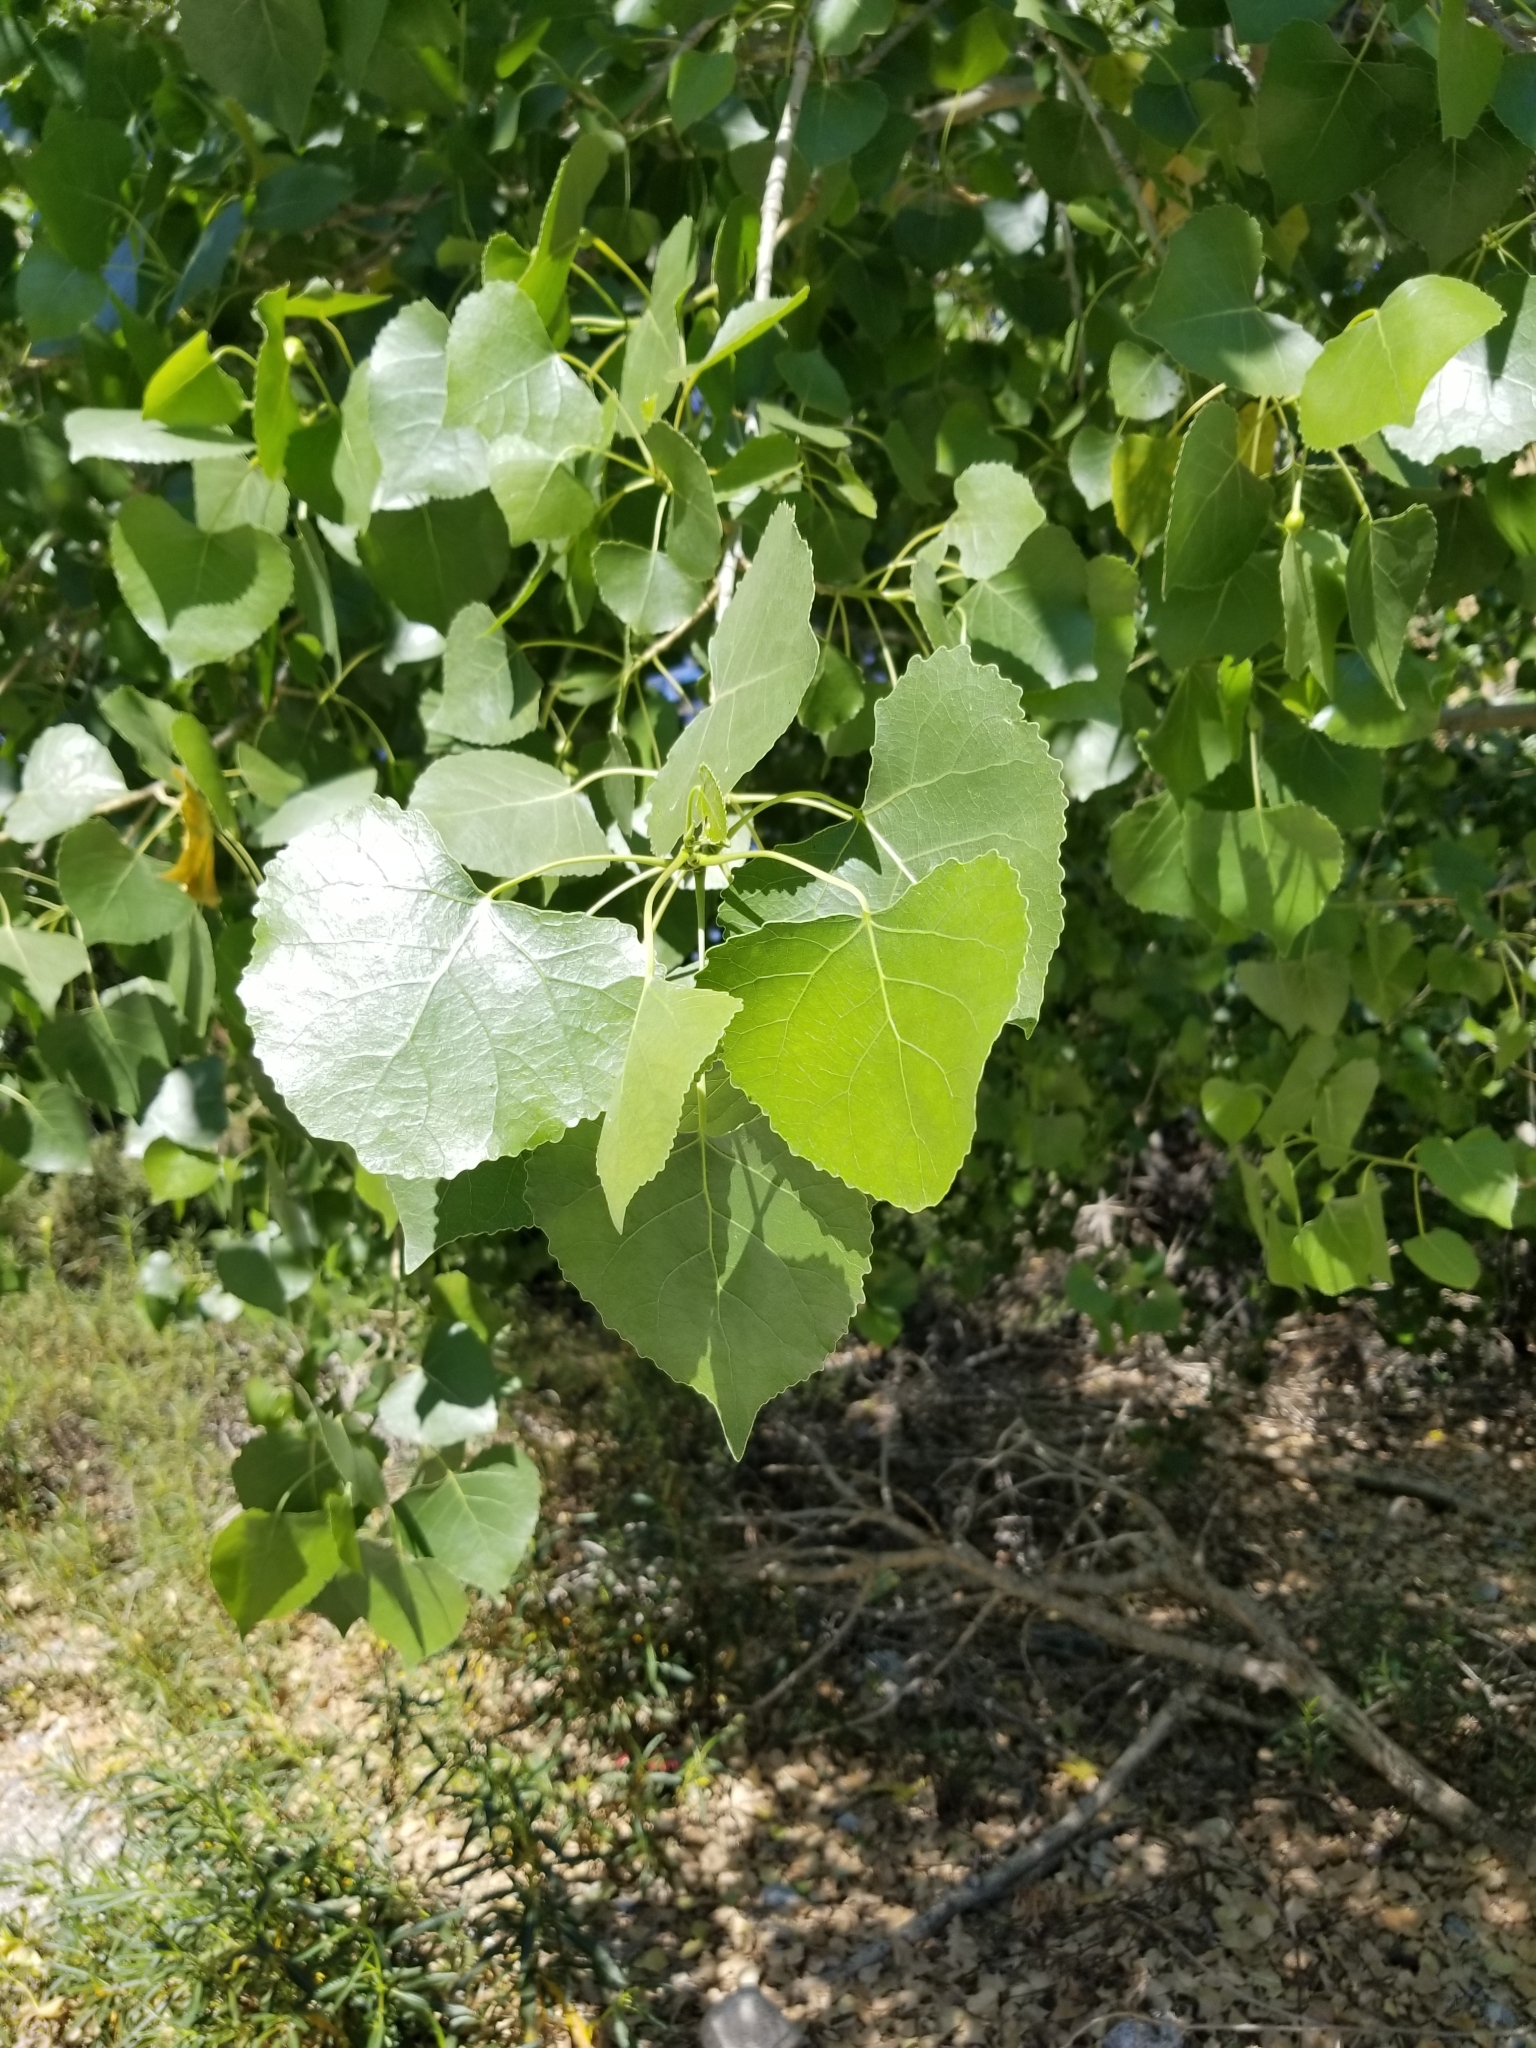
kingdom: Plantae
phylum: Tracheophyta
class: Magnoliopsida
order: Malpighiales
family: Salicaceae
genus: Populus
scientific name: Populus fremontii
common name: Fremont's cottonwood
